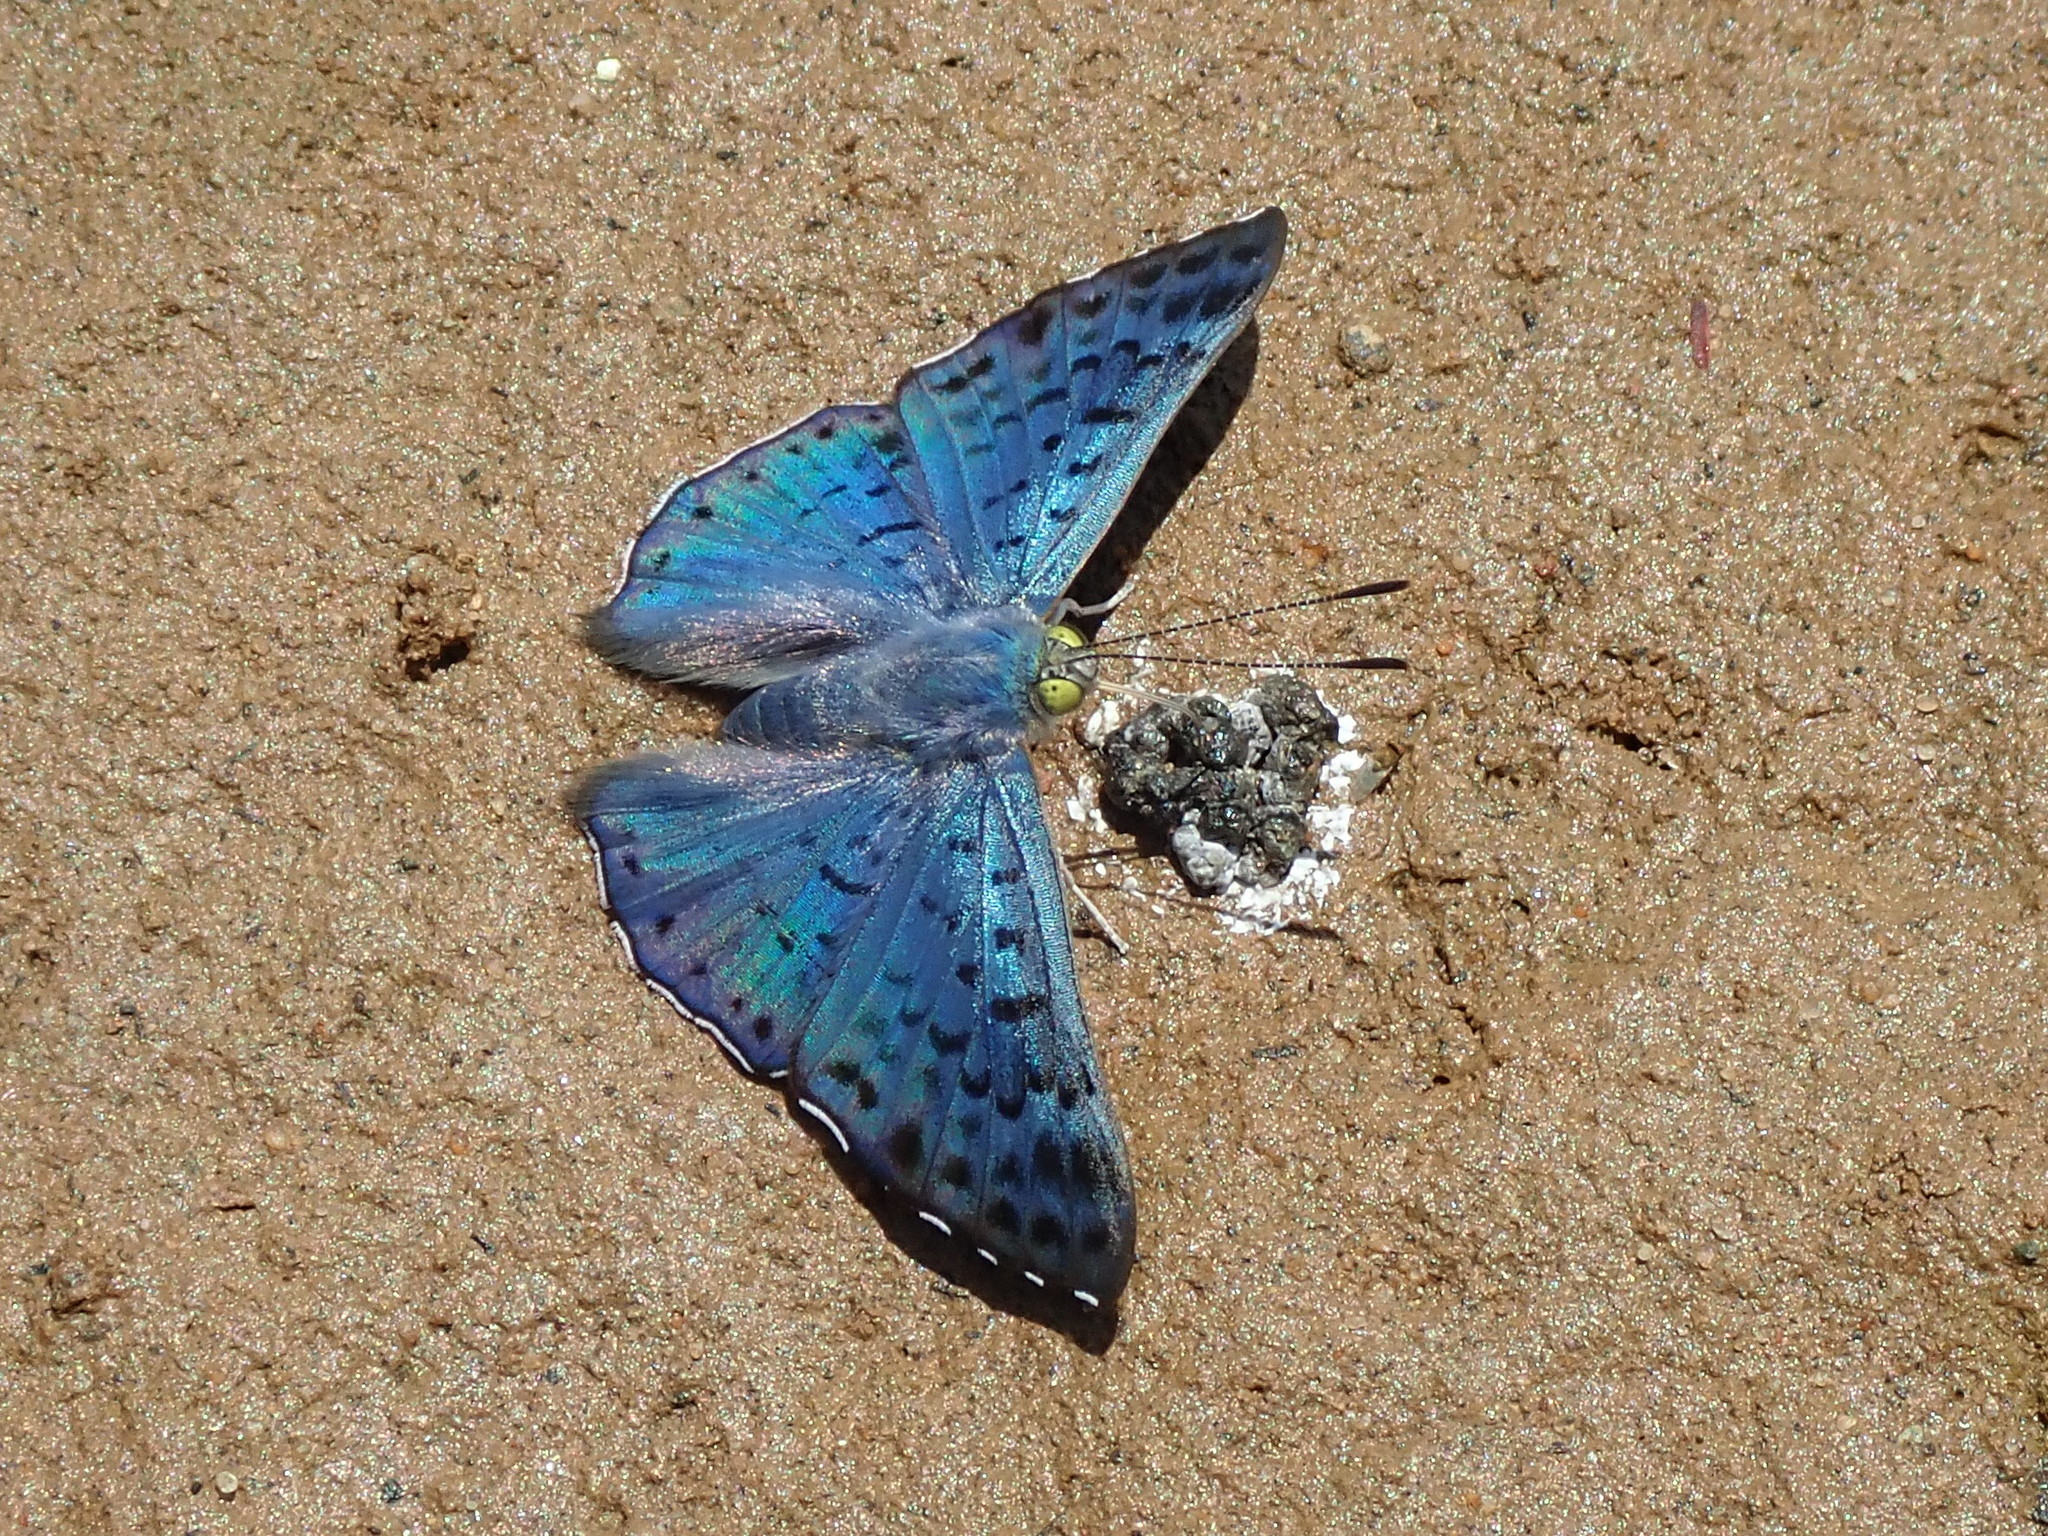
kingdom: Animalia
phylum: Arthropoda
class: Insecta
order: Lepidoptera
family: Riodinidae
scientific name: Riodinidae
